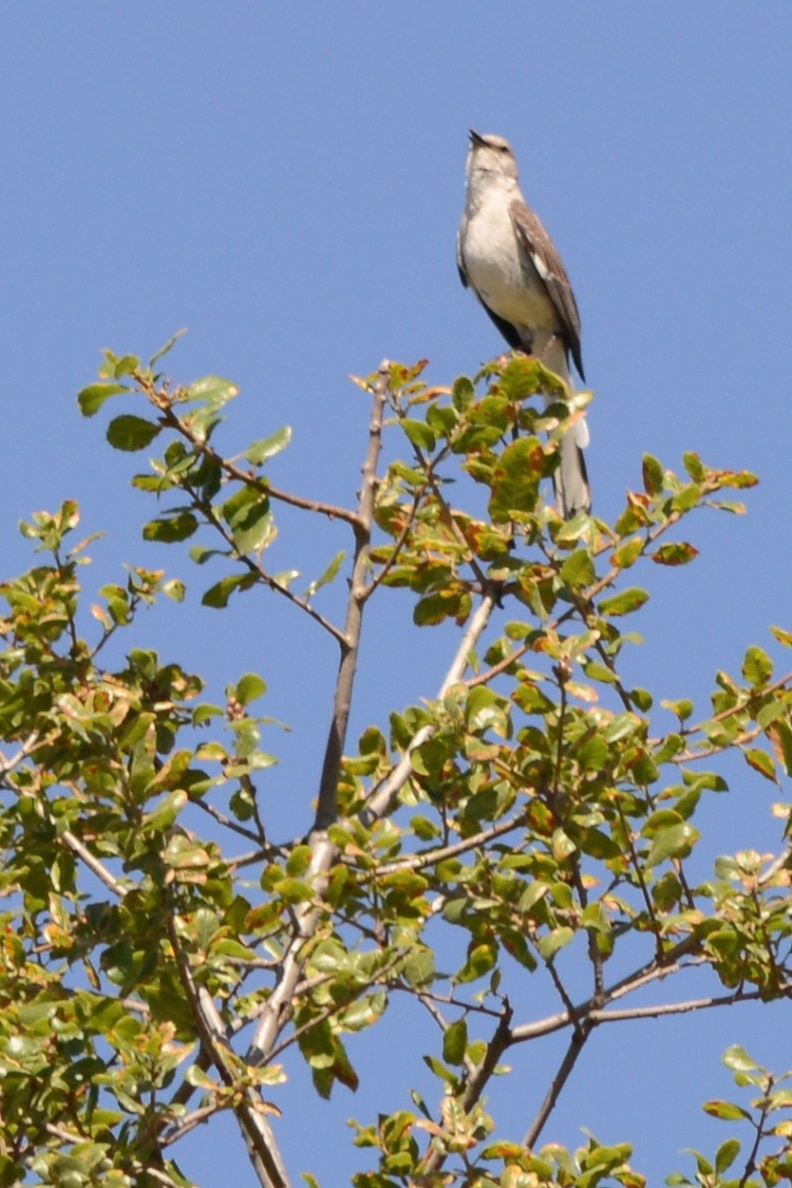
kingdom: Animalia
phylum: Chordata
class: Aves
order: Passeriformes
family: Mimidae
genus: Mimus
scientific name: Mimus polyglottos
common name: Northern mockingbird
